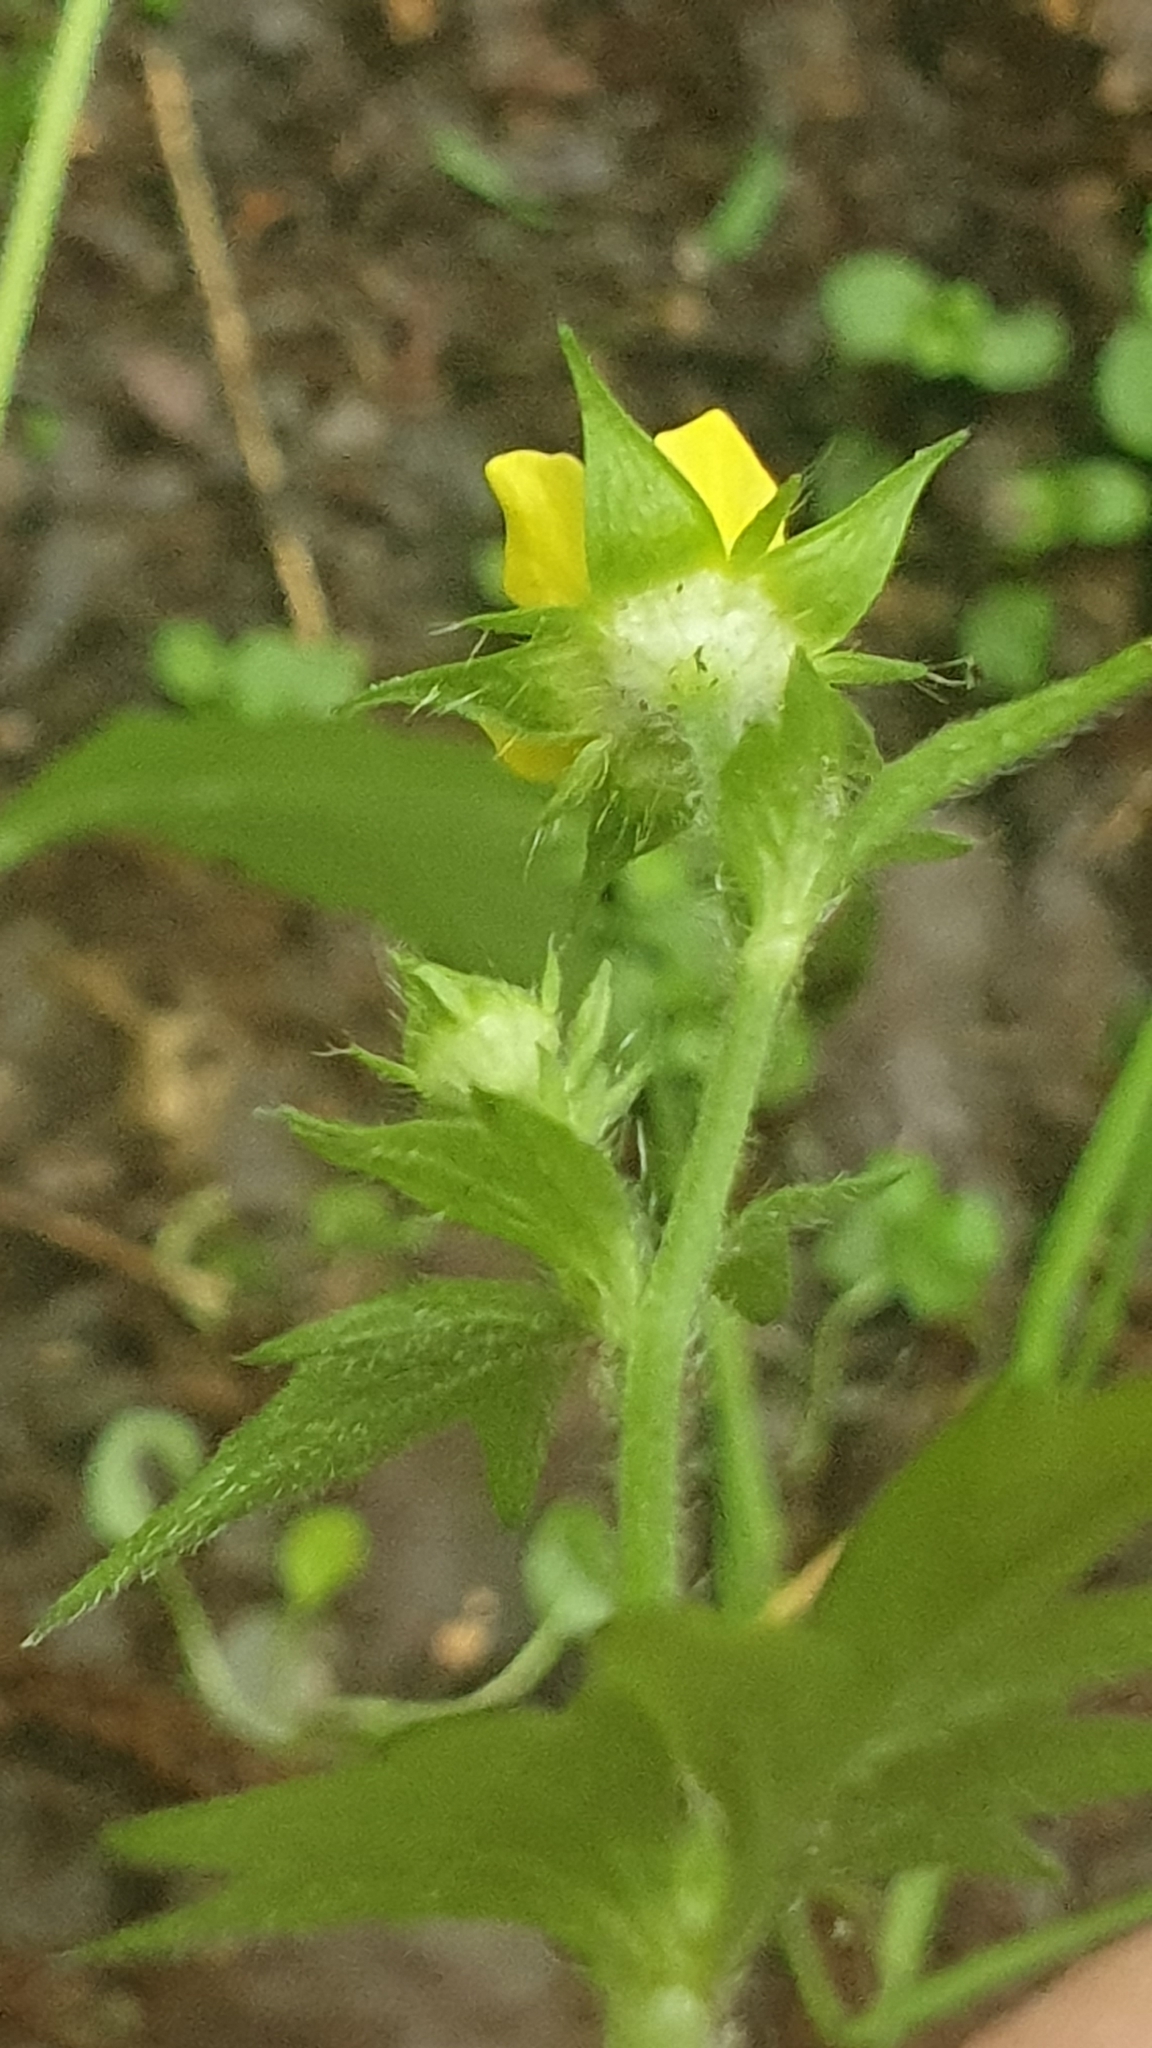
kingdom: Plantae
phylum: Tracheophyta
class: Magnoliopsida
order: Rosales
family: Rosaceae
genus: Geum
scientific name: Geum urbanum
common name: Wood avens
